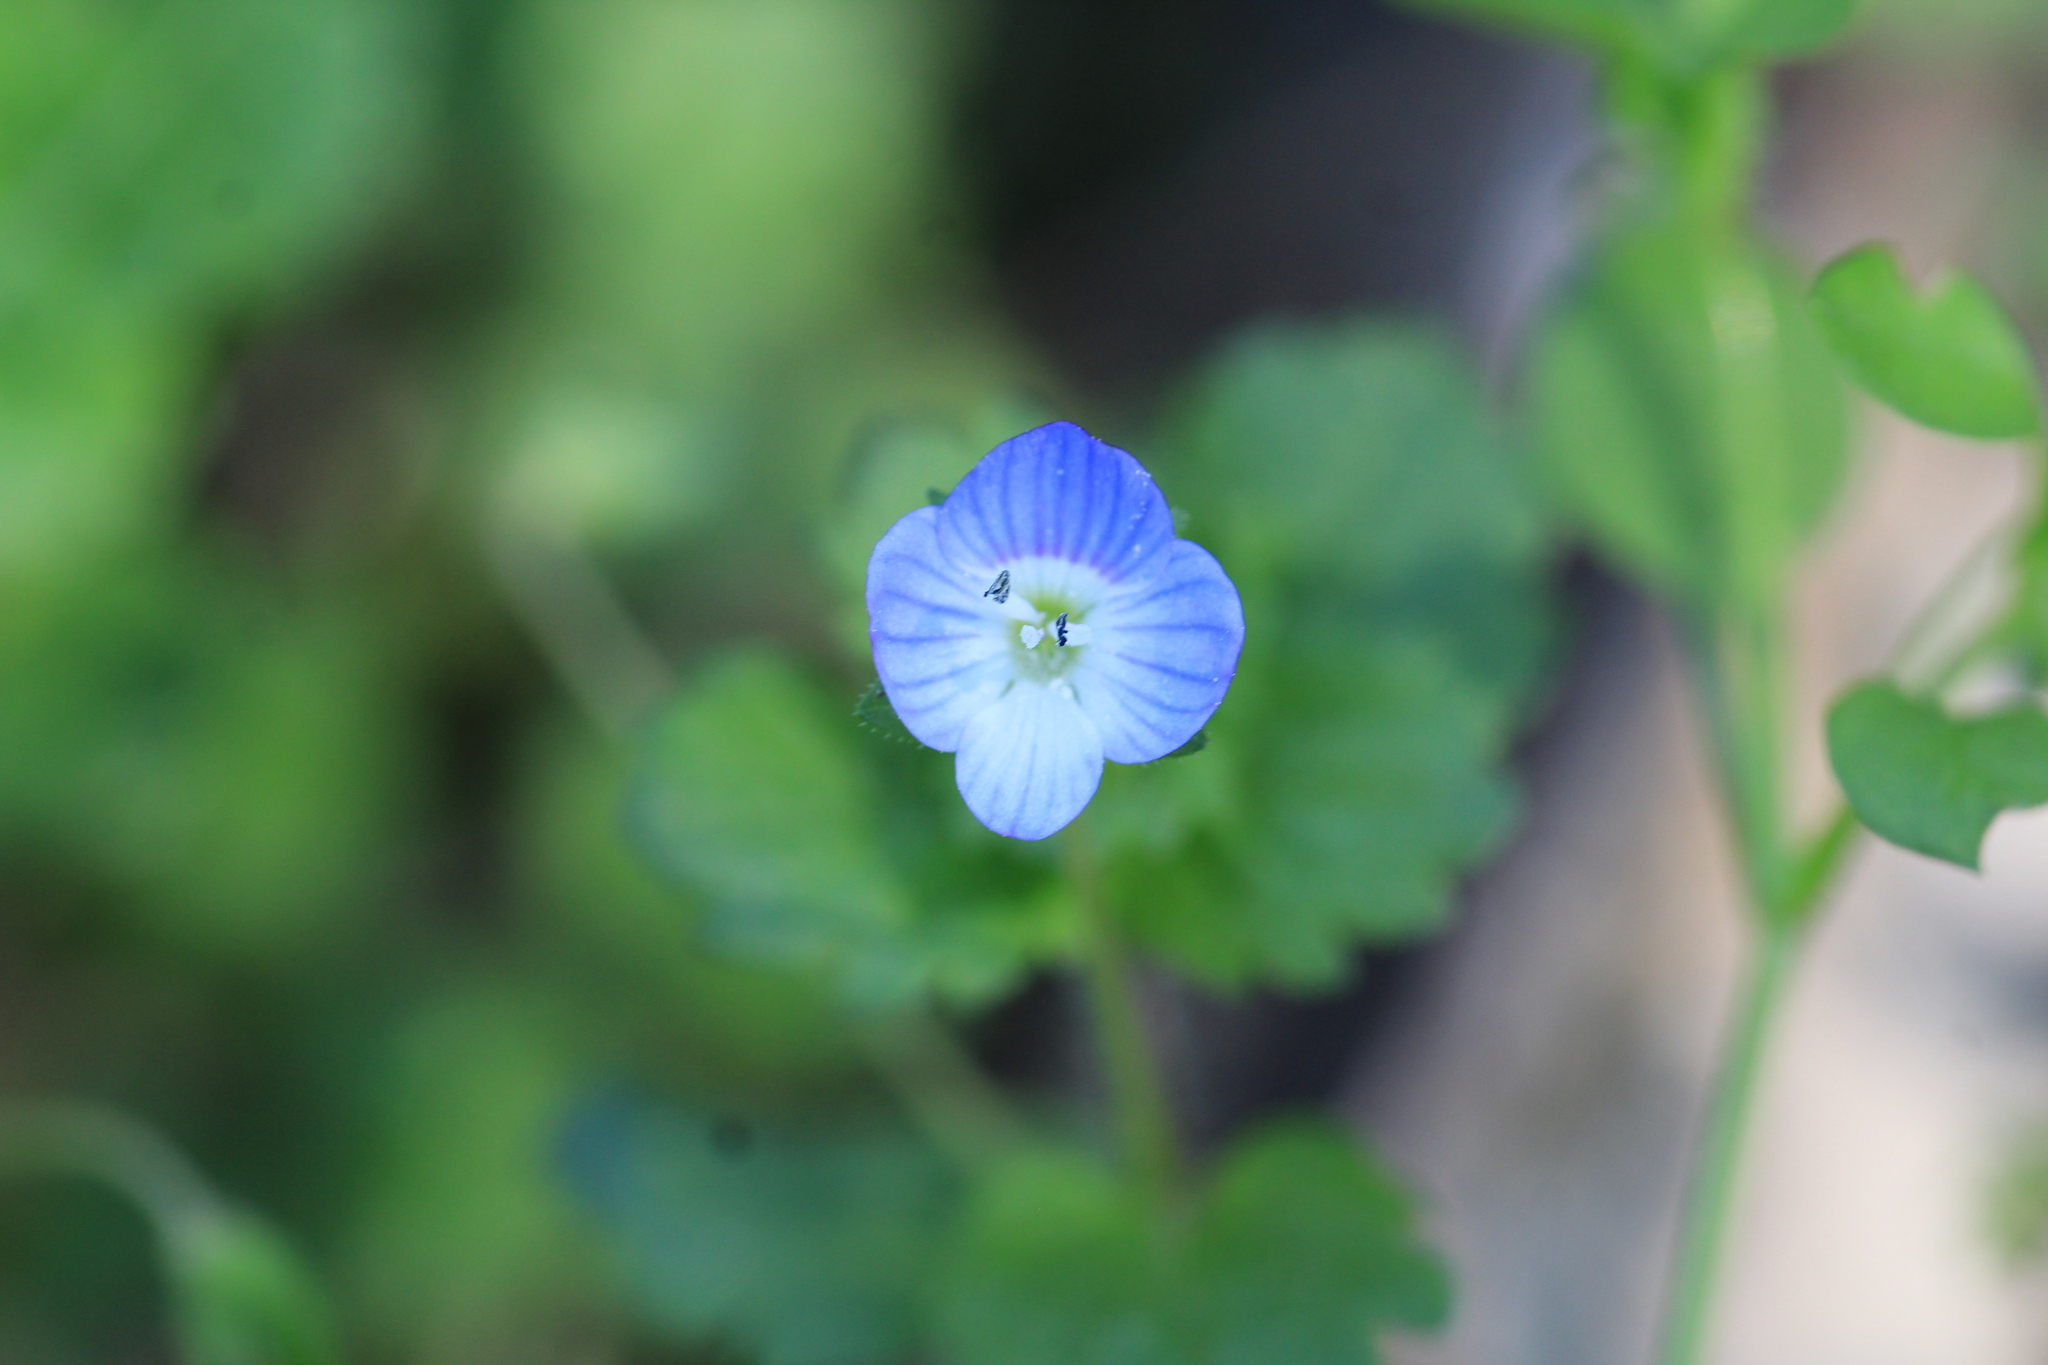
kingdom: Plantae
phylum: Tracheophyta
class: Magnoliopsida
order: Lamiales
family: Plantaginaceae
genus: Veronica
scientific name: Veronica persica
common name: Common field-speedwell
